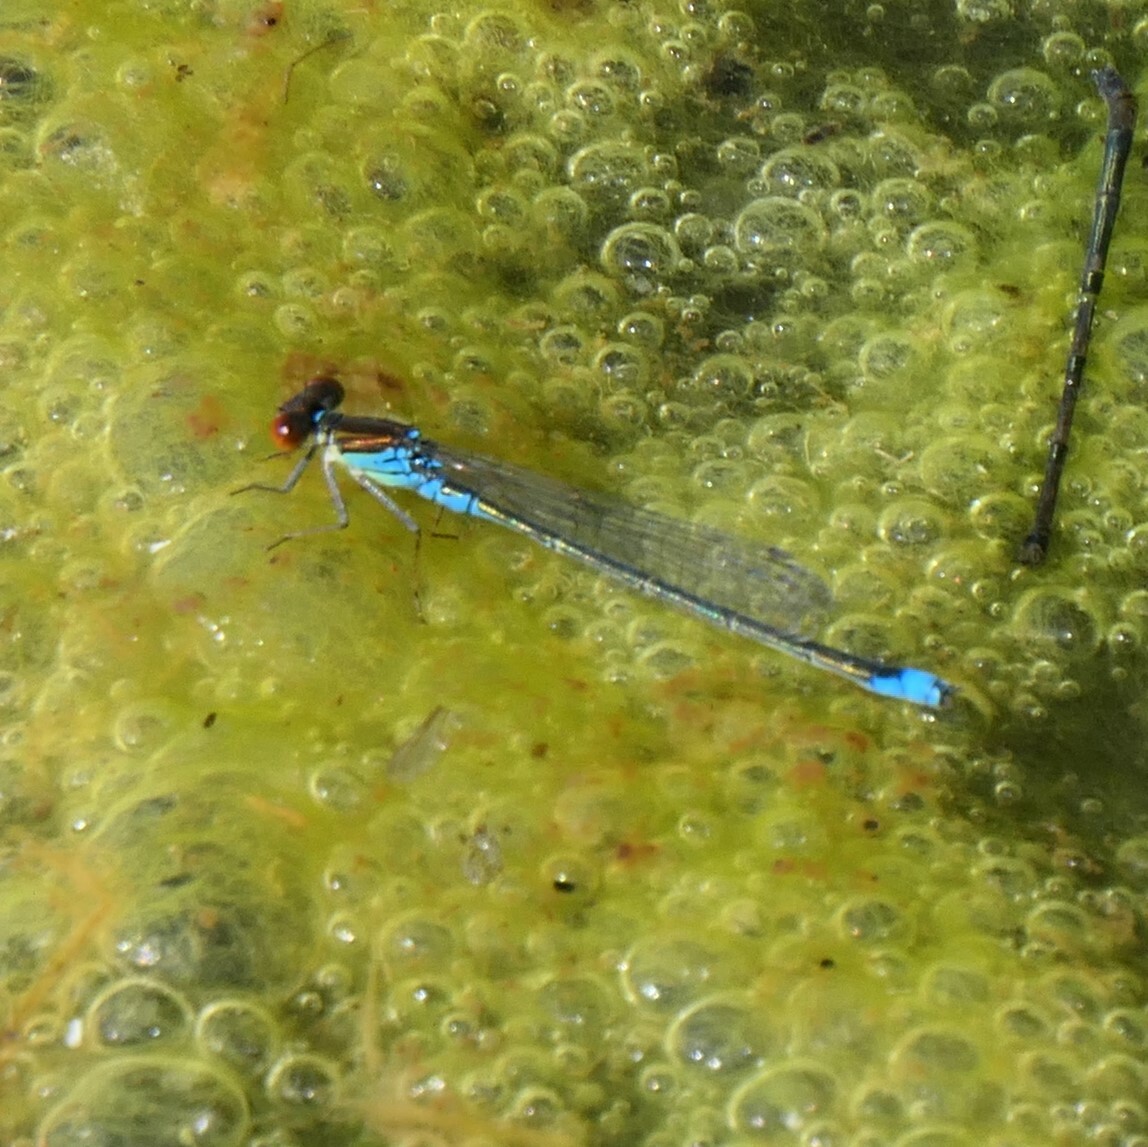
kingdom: Animalia
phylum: Arthropoda
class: Insecta
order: Odonata
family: Coenagrionidae
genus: Erythromma
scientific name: Erythromma viridulum
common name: Small red-eyed damselfly
